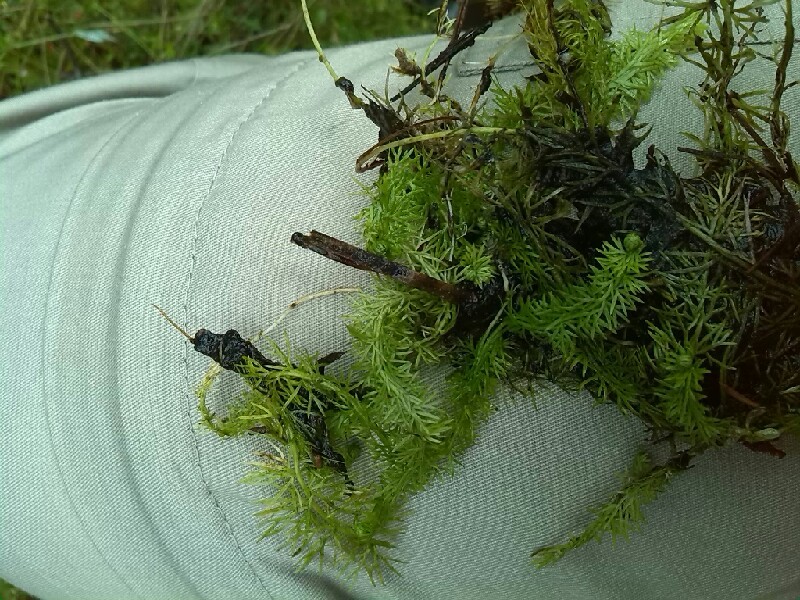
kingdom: Plantae
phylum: Tracheophyta
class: Magnoliopsida
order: Lamiales
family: Lentibulariaceae
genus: Utricularia
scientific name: Utricularia intermedia
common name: Intermediate bladderwort
